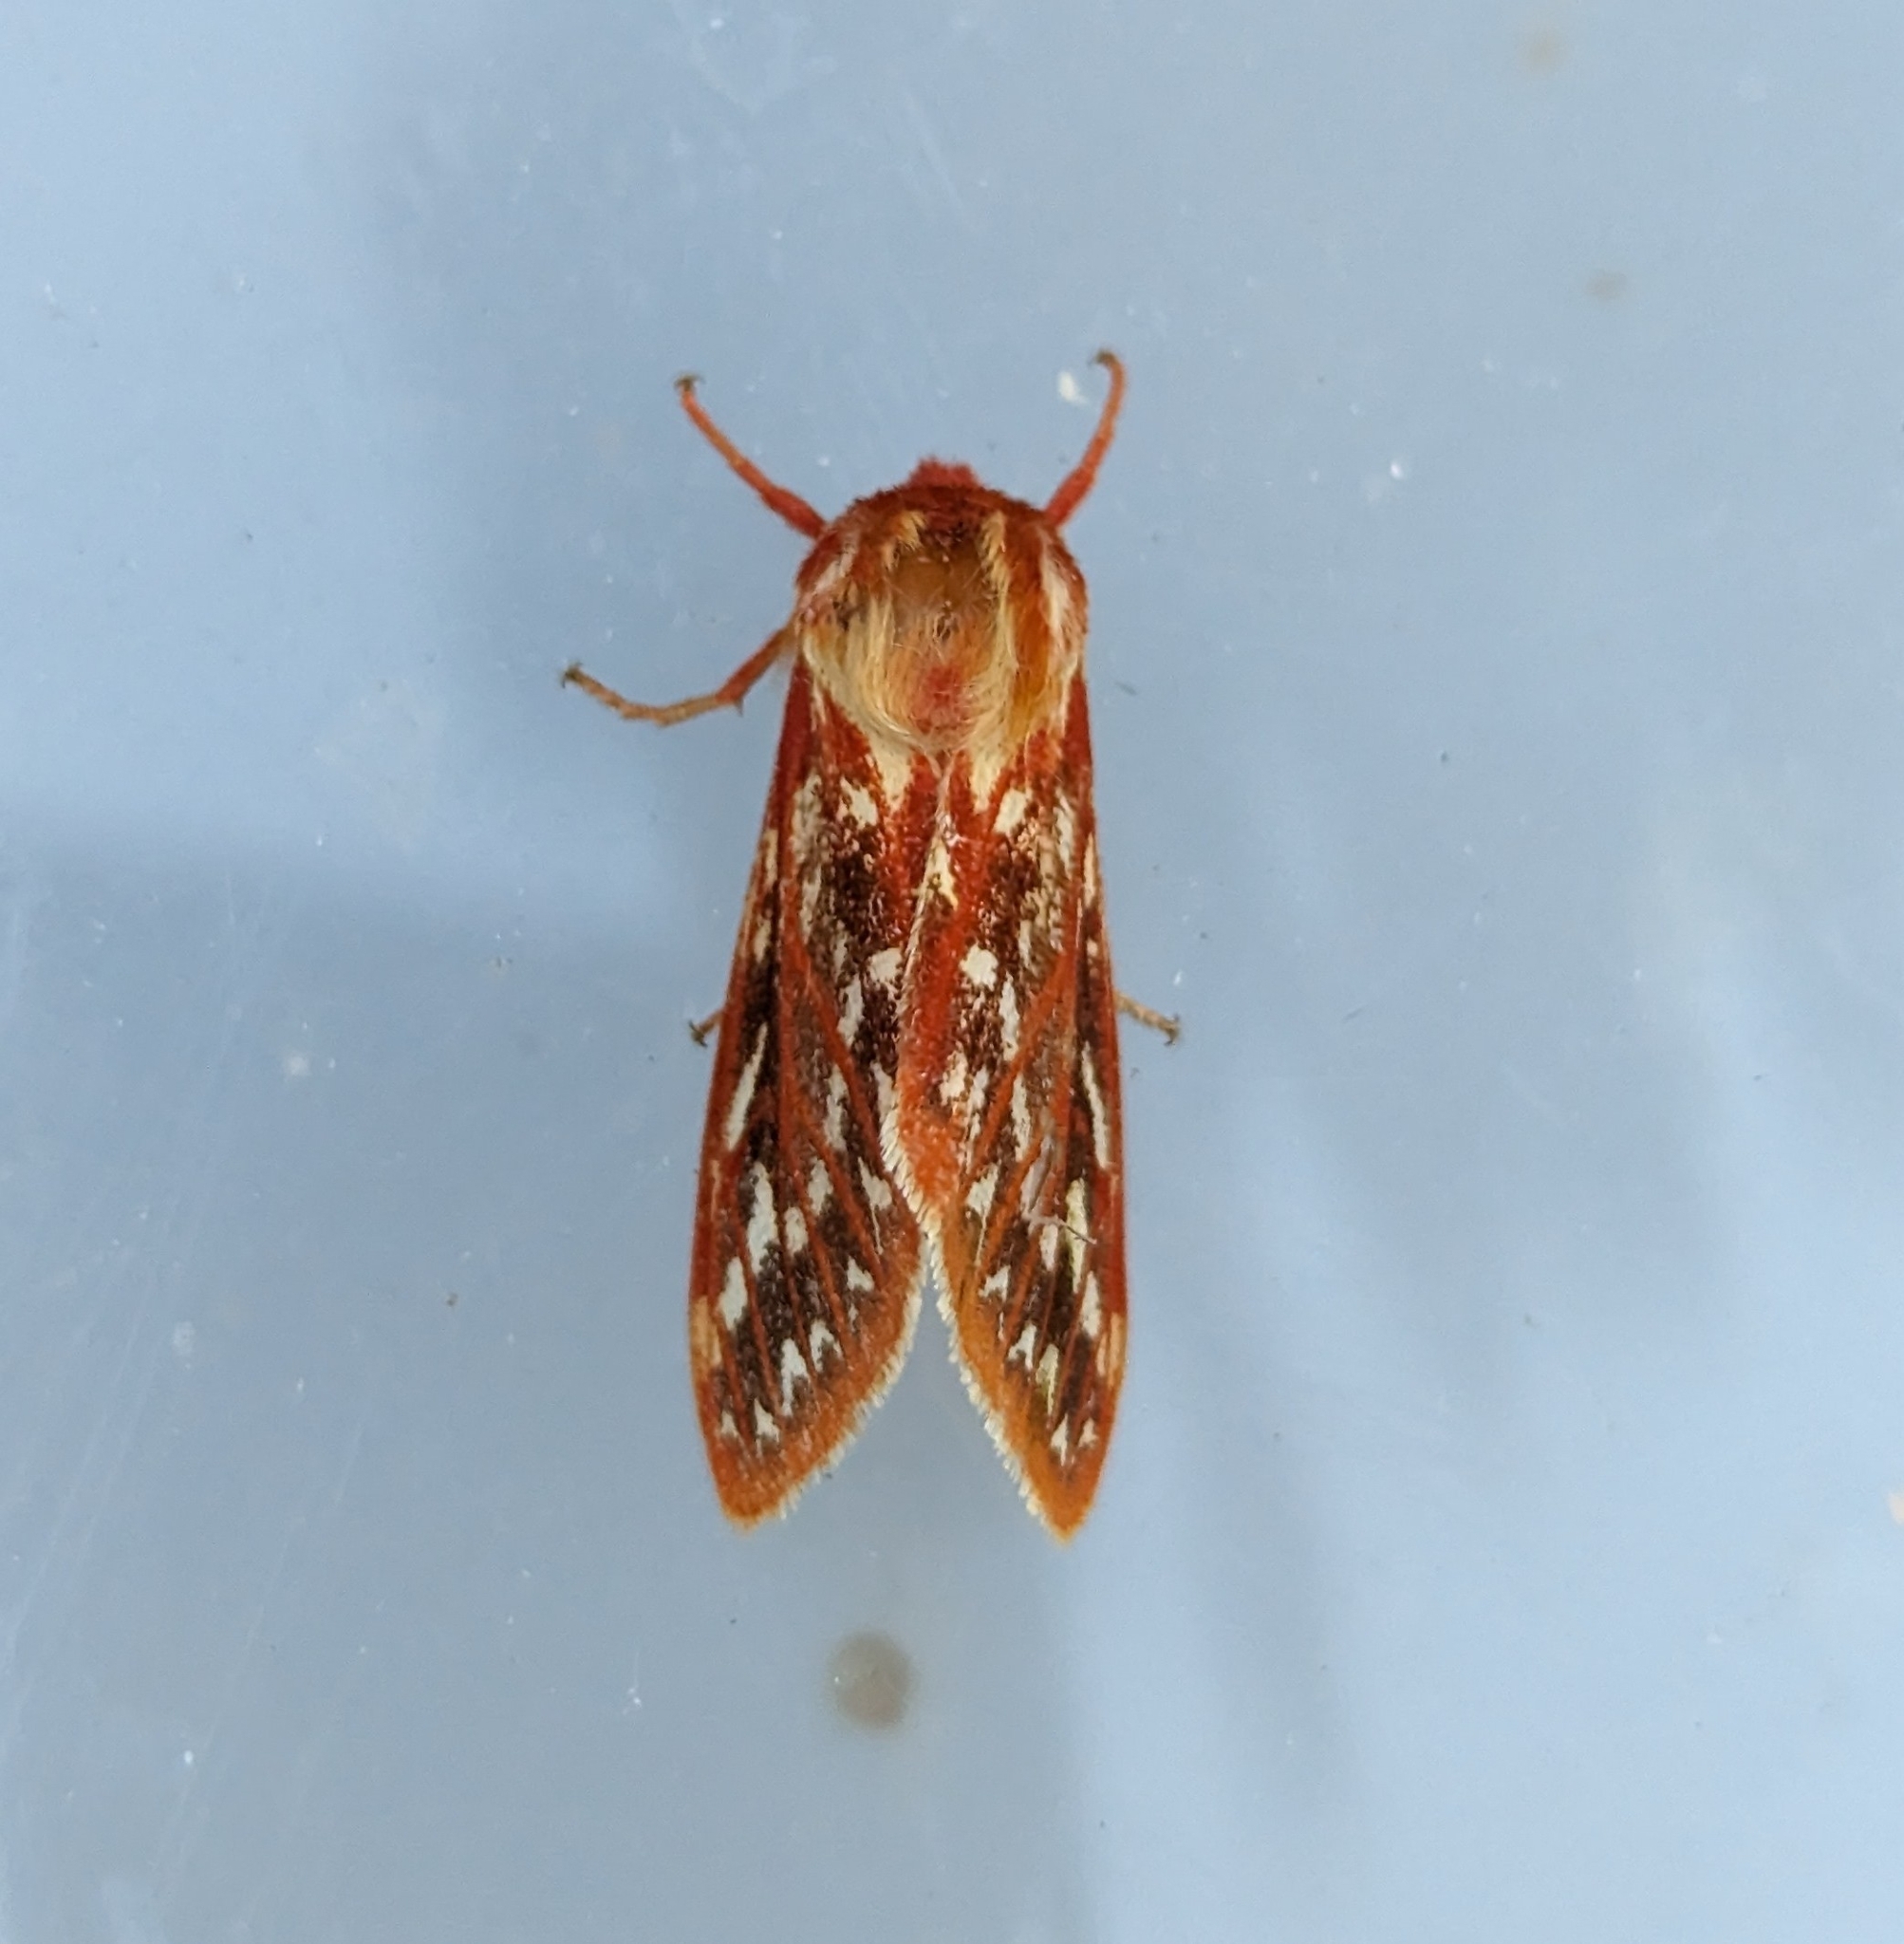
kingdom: Animalia
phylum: Arthropoda
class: Insecta
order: Lepidoptera
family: Erebidae
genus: Lophocampa
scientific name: Lophocampa roseata
